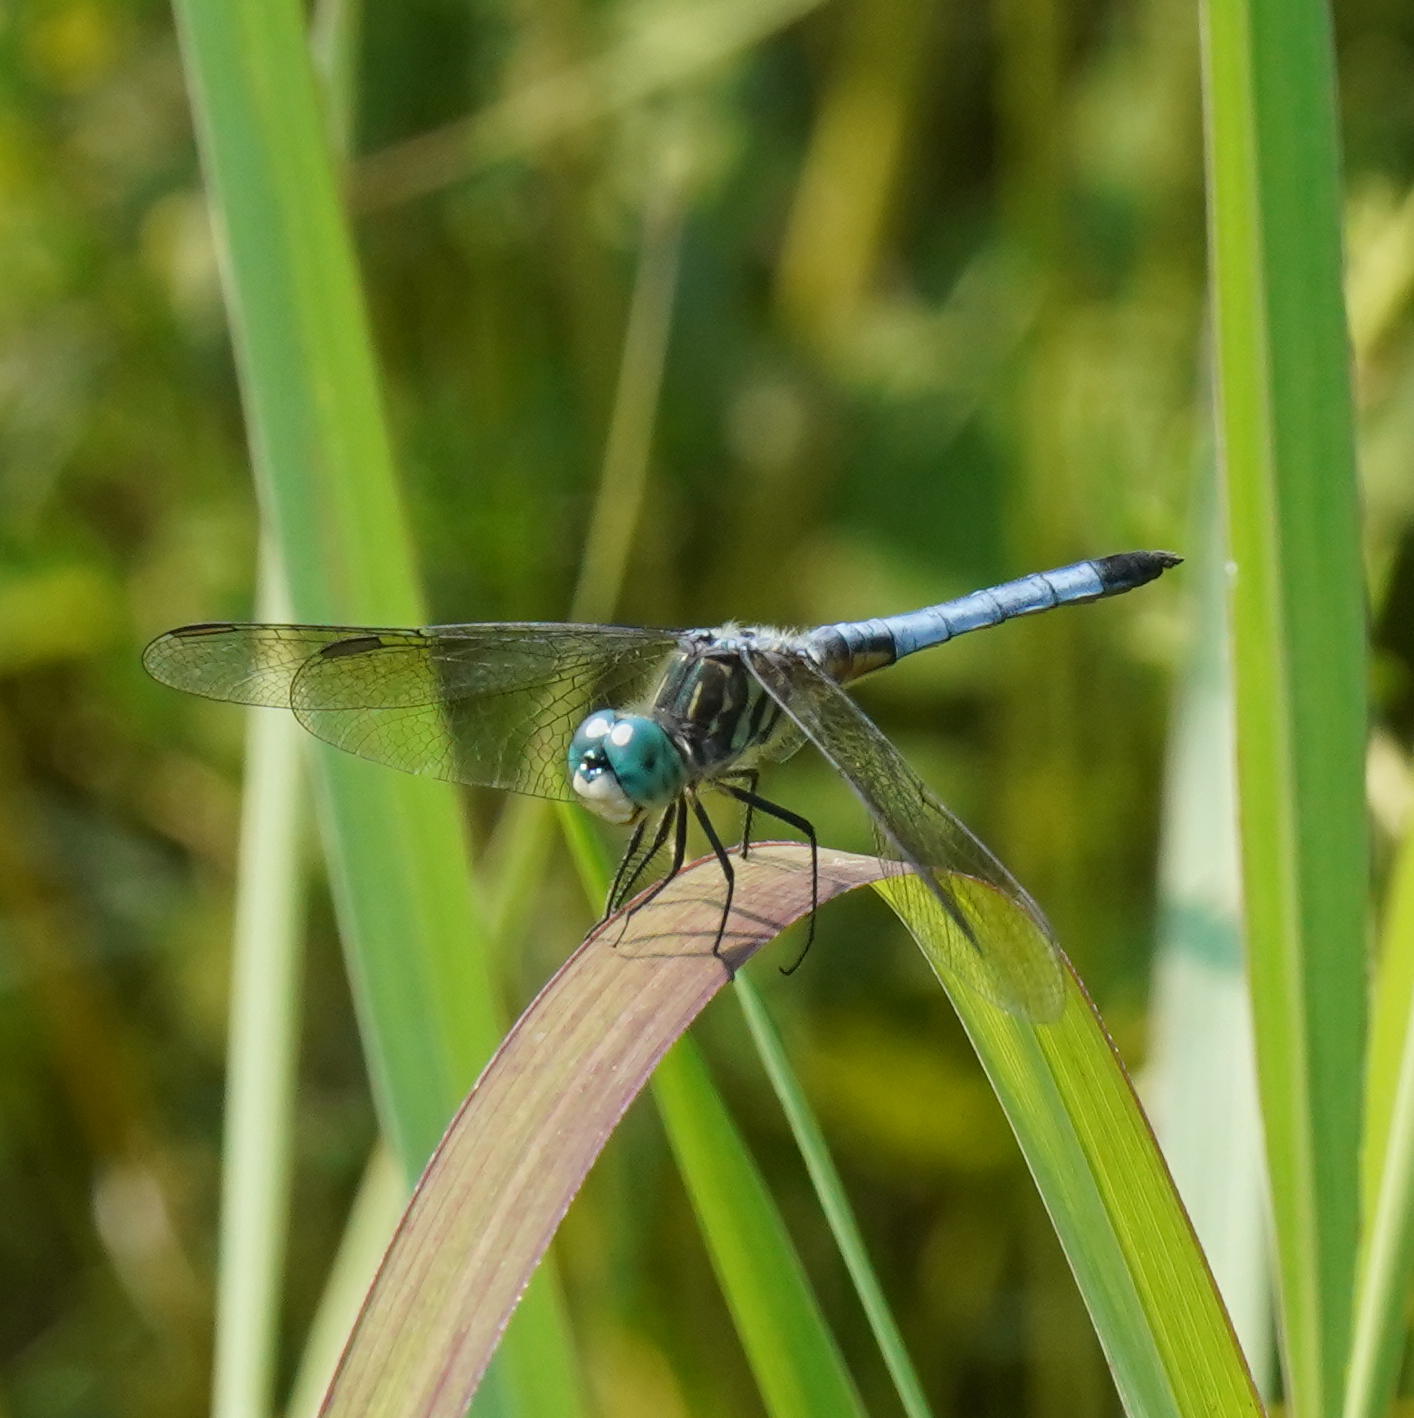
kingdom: Animalia
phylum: Arthropoda
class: Insecta
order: Odonata
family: Libellulidae
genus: Pachydiplax
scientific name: Pachydiplax longipennis
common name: Blue dasher
